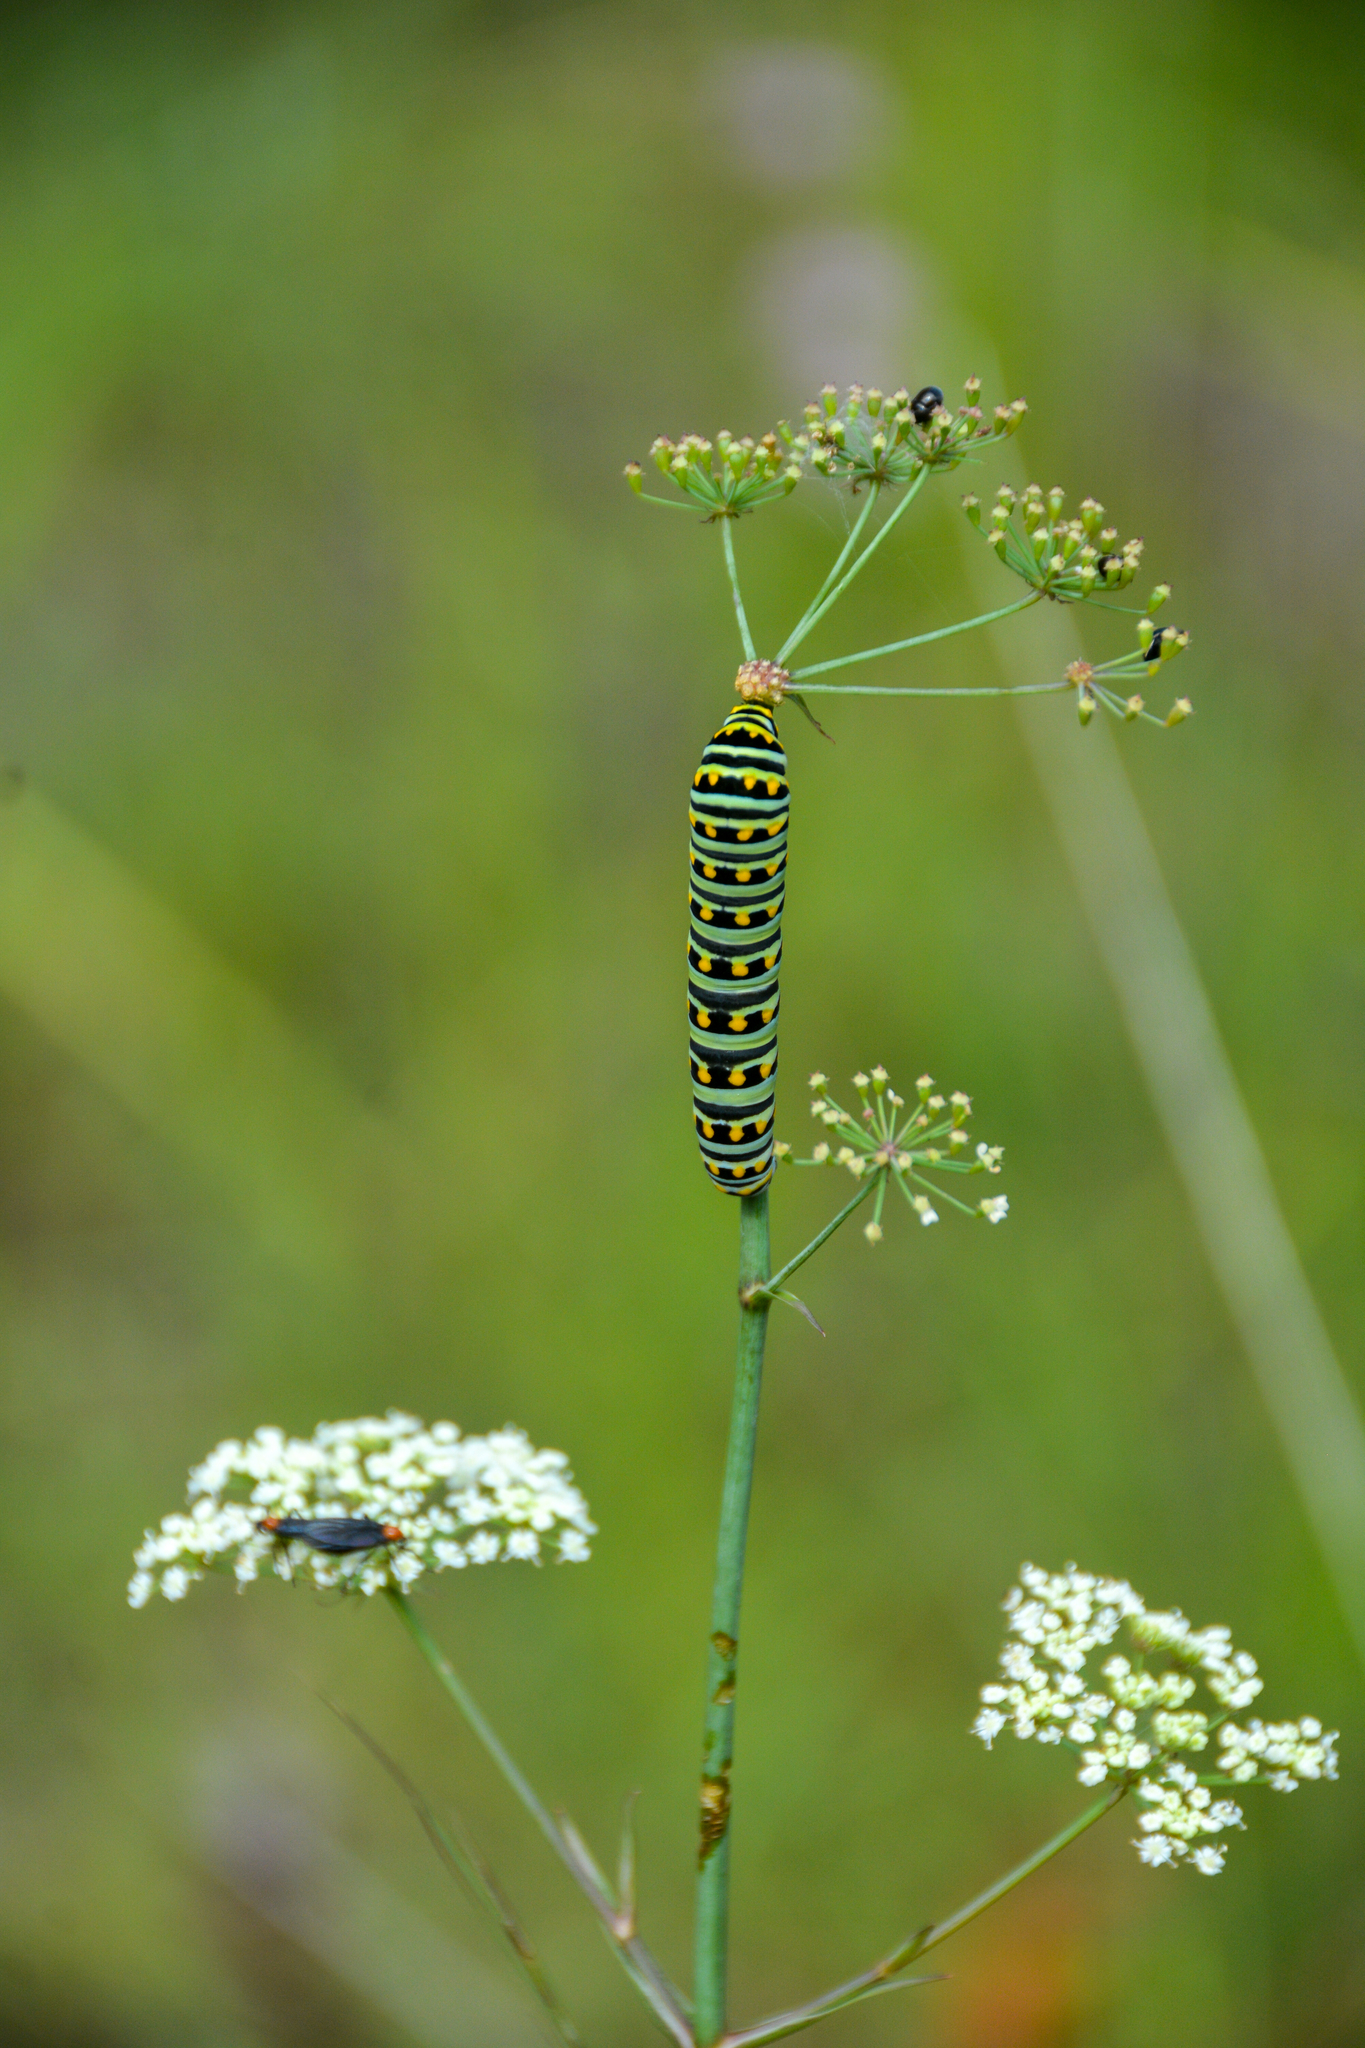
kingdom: Animalia
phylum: Arthropoda
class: Insecta
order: Lepidoptera
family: Papilionidae
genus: Papilio
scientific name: Papilio polyxenes
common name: Black swallowtail
